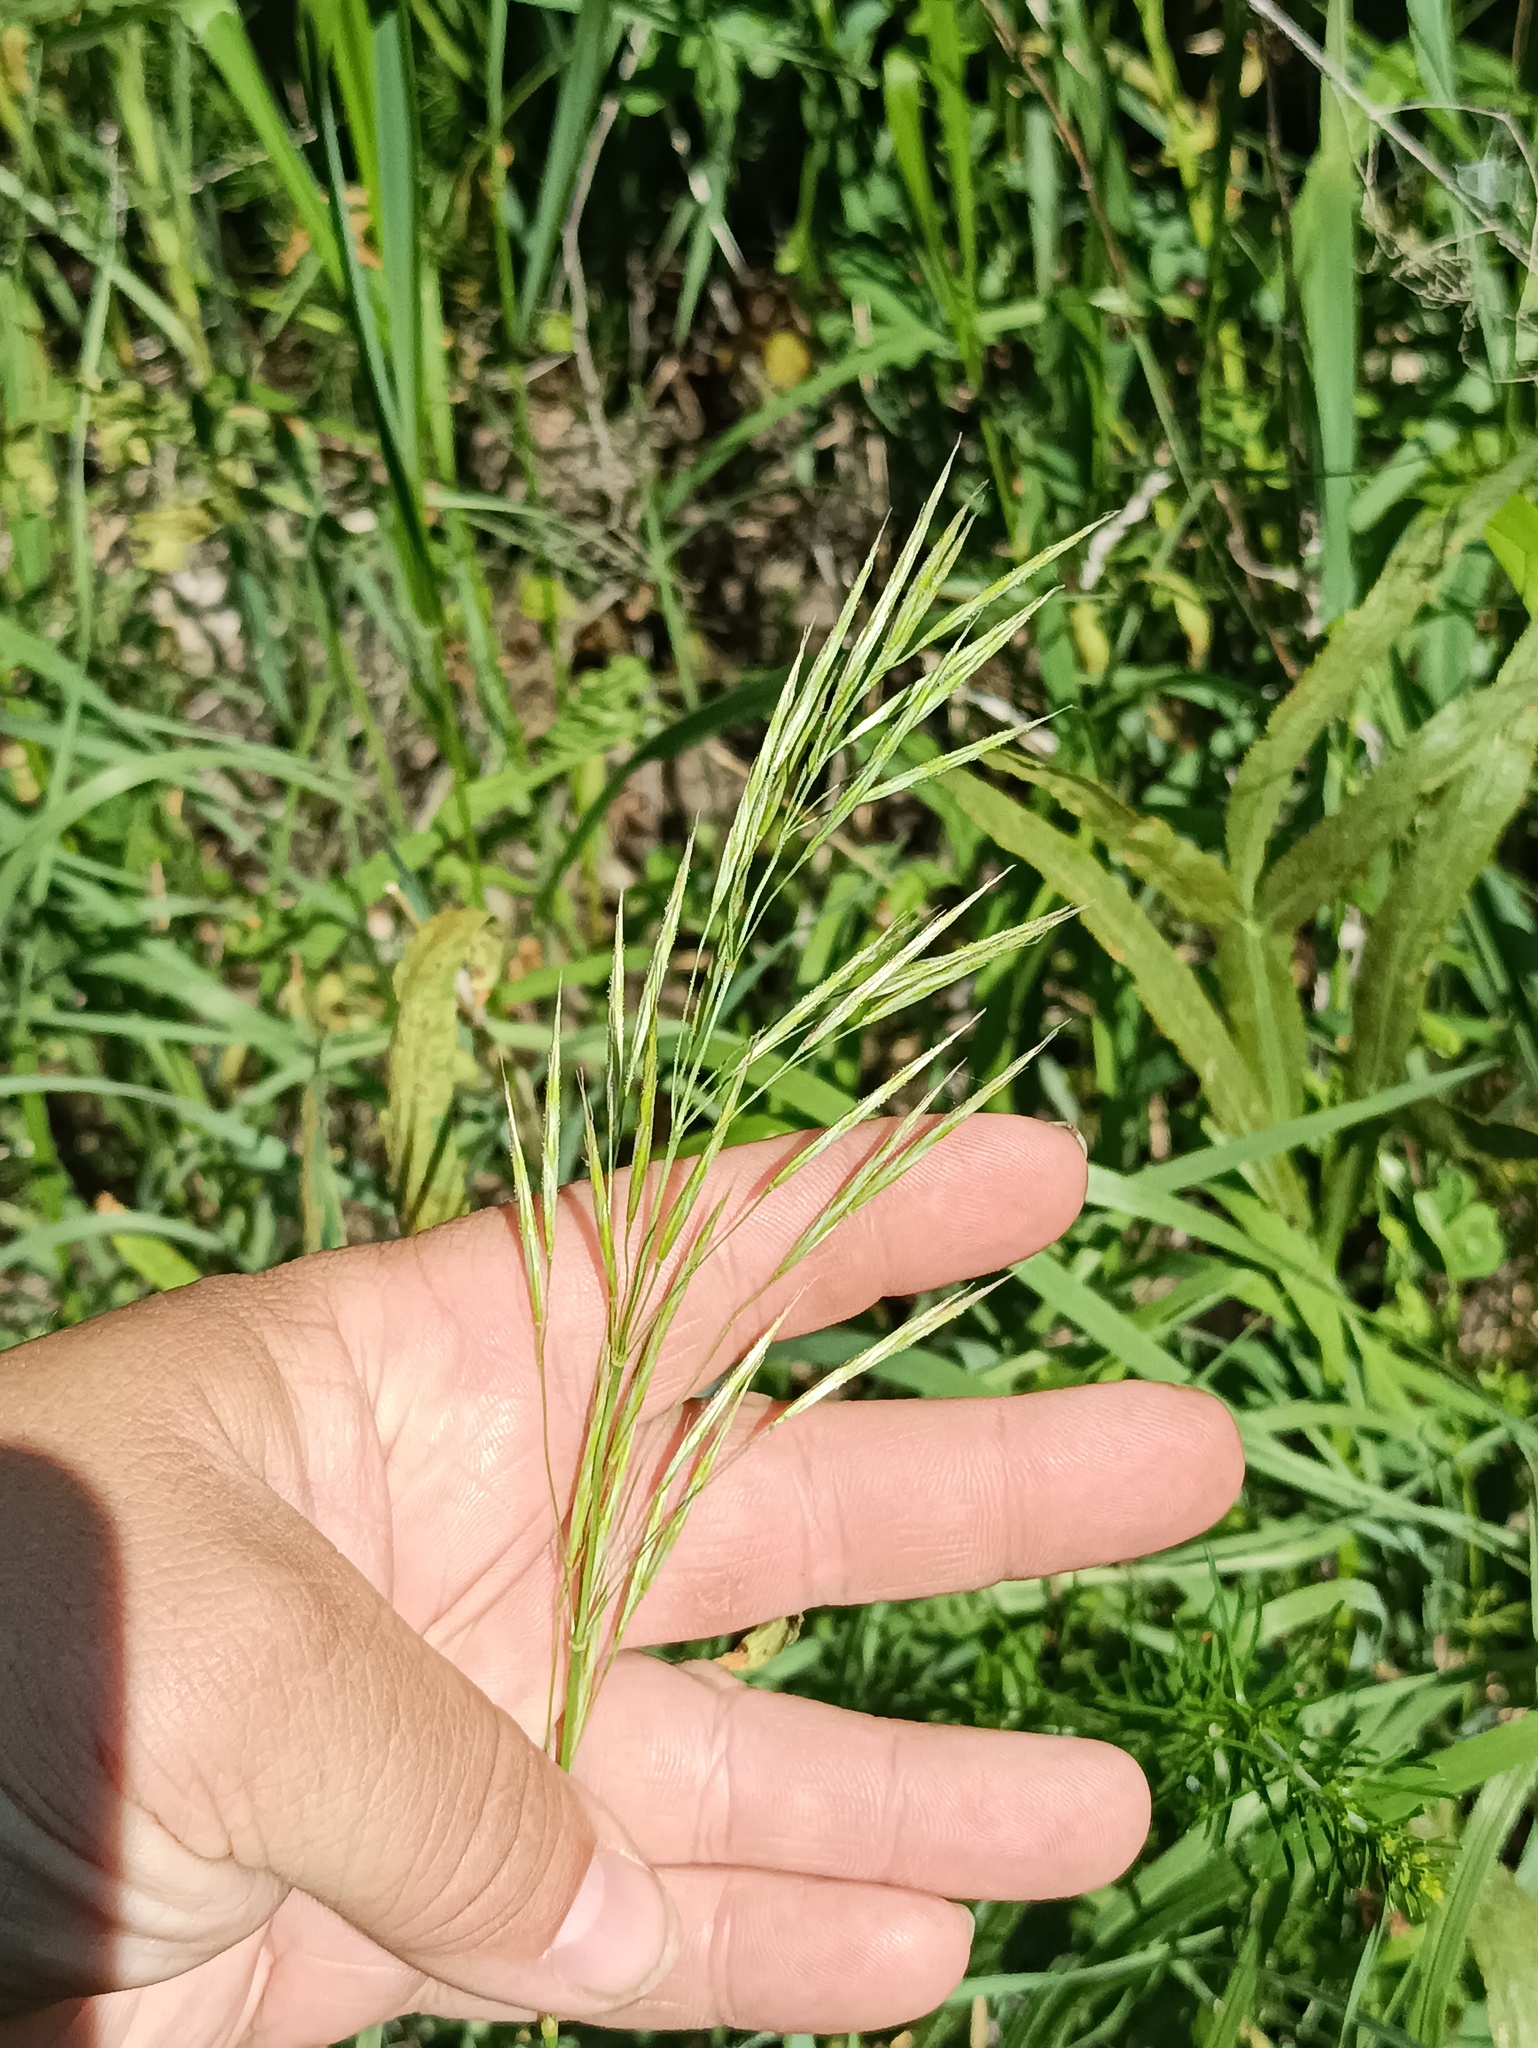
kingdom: Plantae
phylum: Tracheophyta
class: Liliopsida
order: Poales
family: Poaceae
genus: Bromus
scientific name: Bromus inermis
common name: Smooth brome
